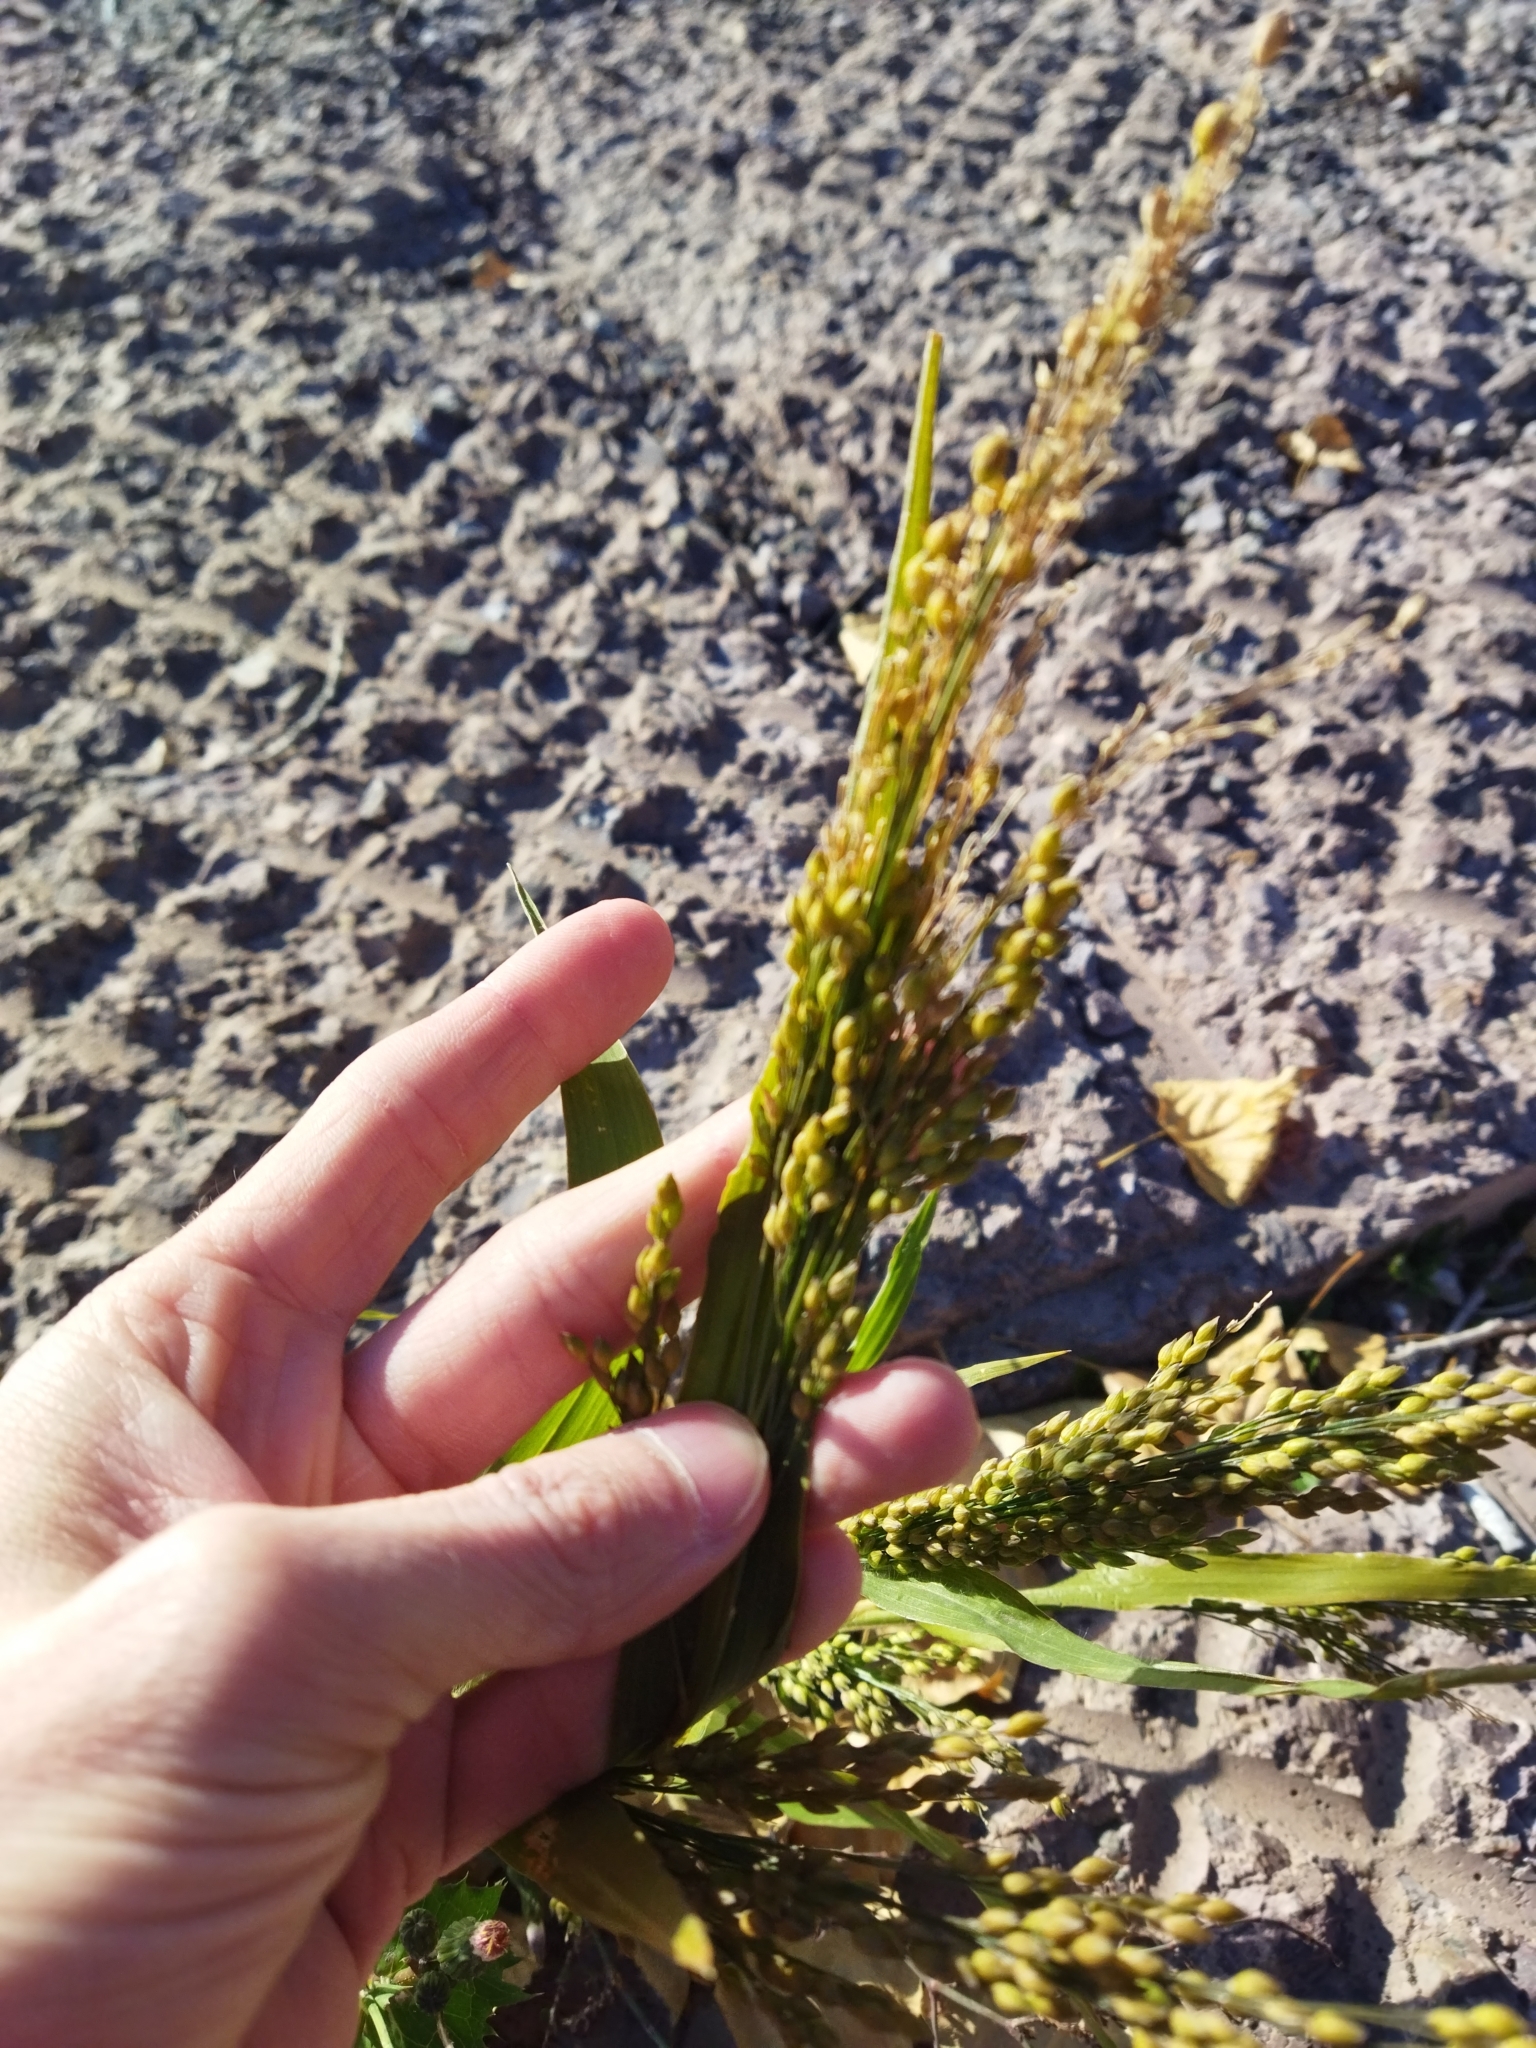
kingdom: Plantae
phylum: Tracheophyta
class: Liliopsida
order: Poales
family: Poaceae
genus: Panicum
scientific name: Panicum miliaceum
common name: Common millet
